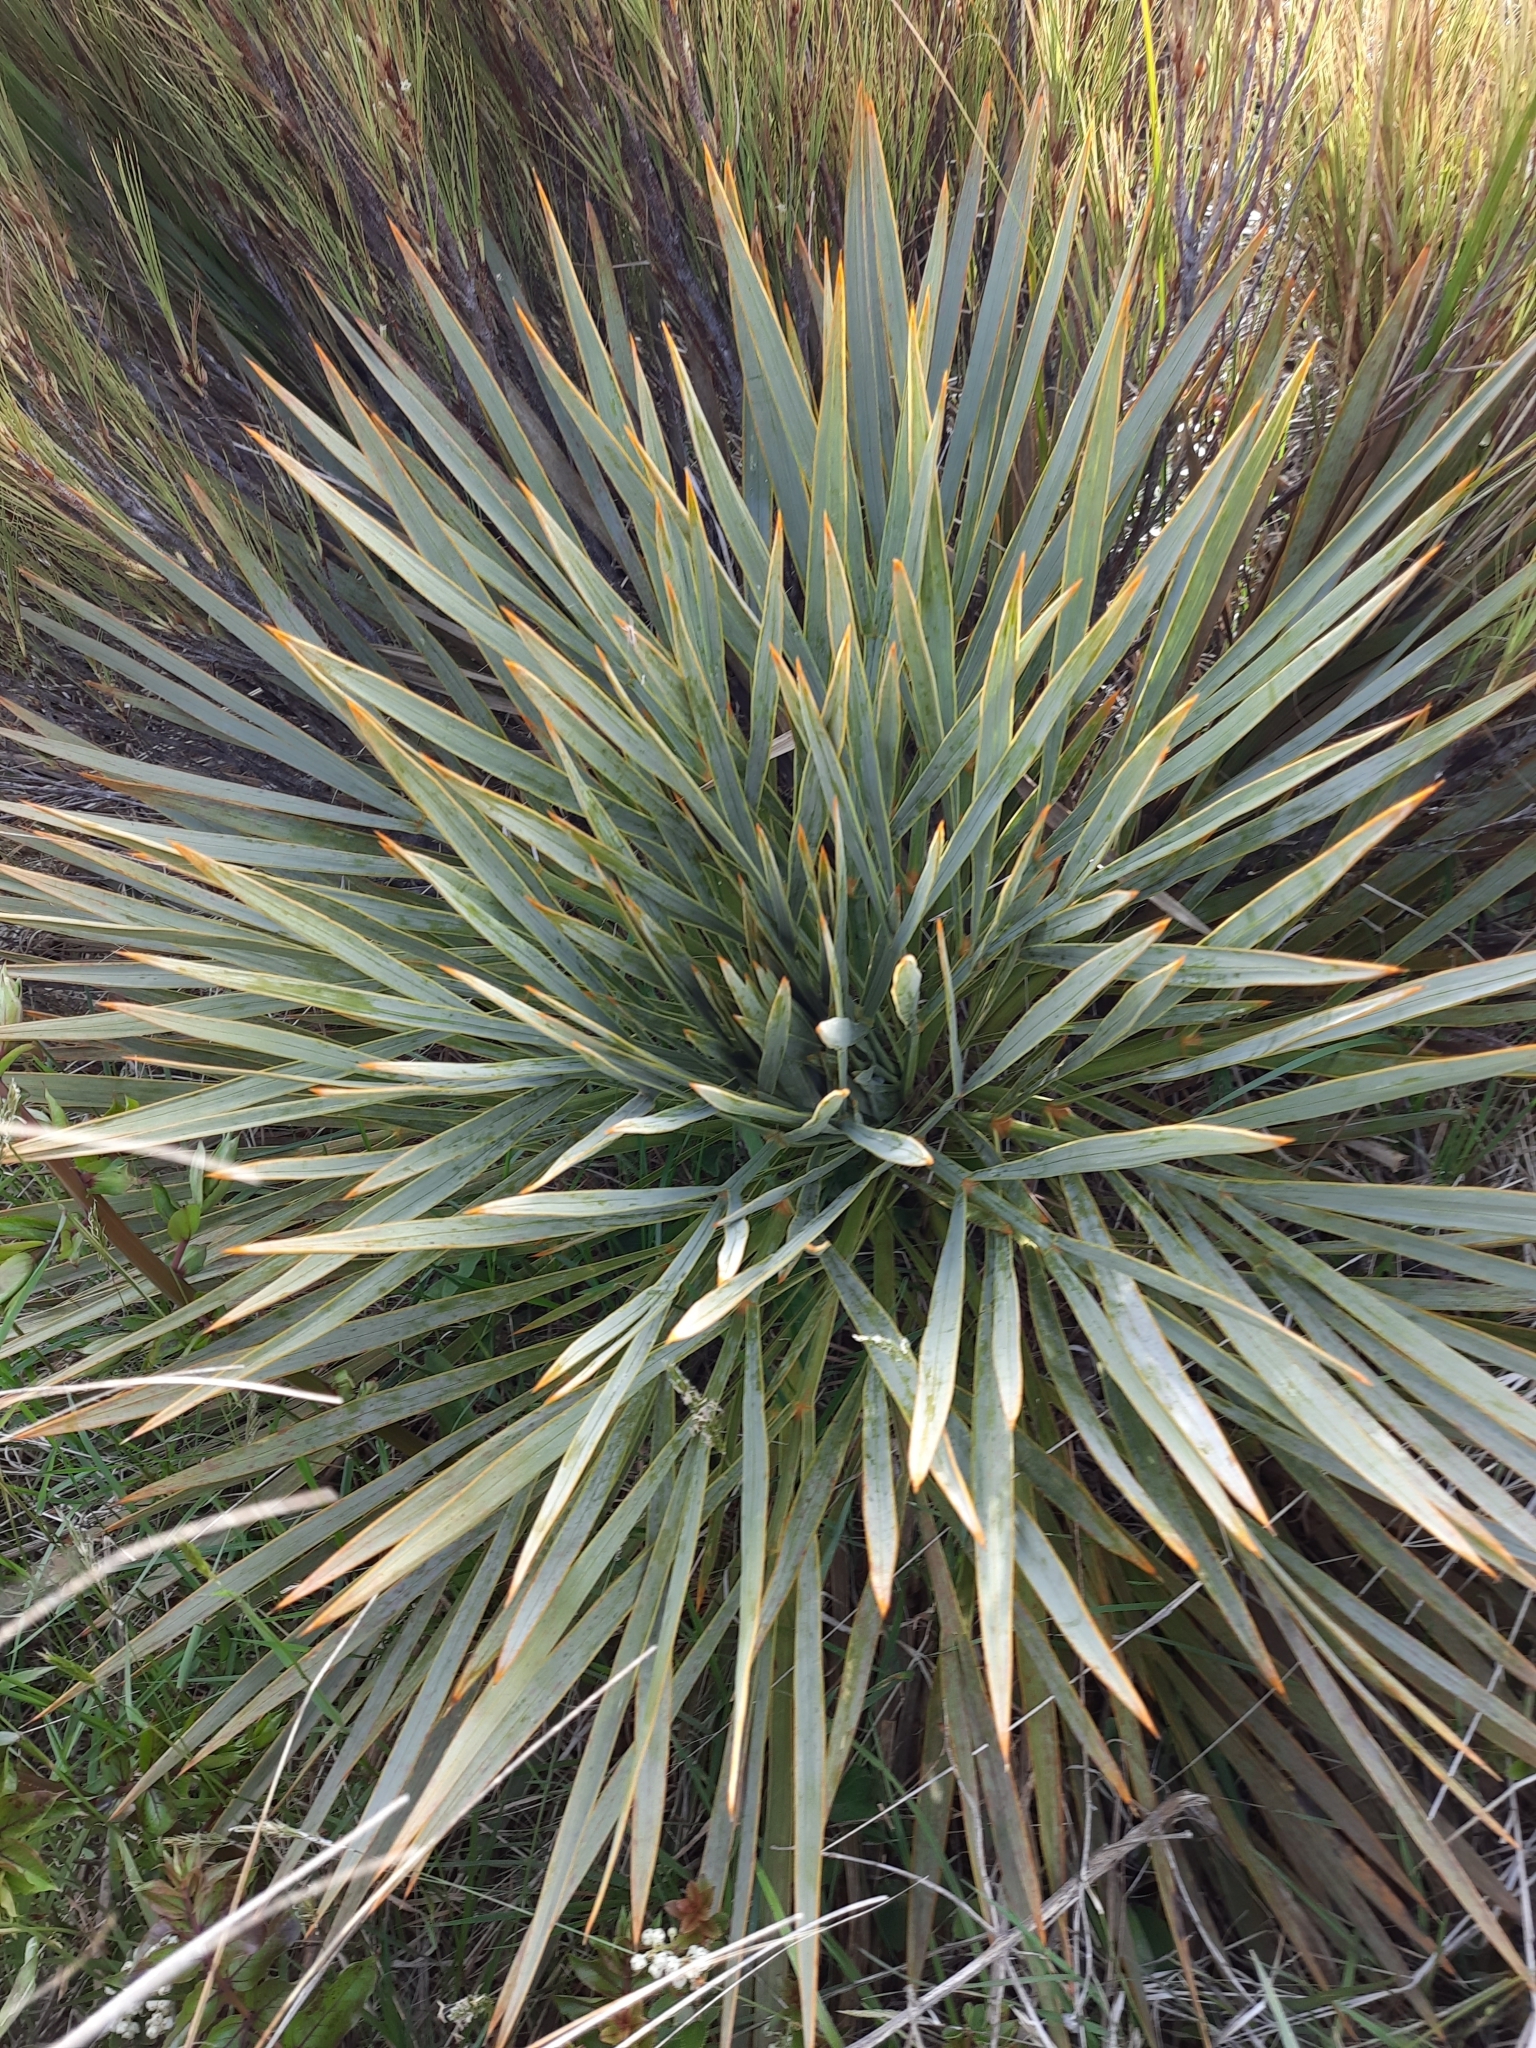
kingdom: Plantae
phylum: Tracheophyta
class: Magnoliopsida
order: Apiales
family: Apiaceae
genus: Aciphylla
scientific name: Aciphylla aurea
